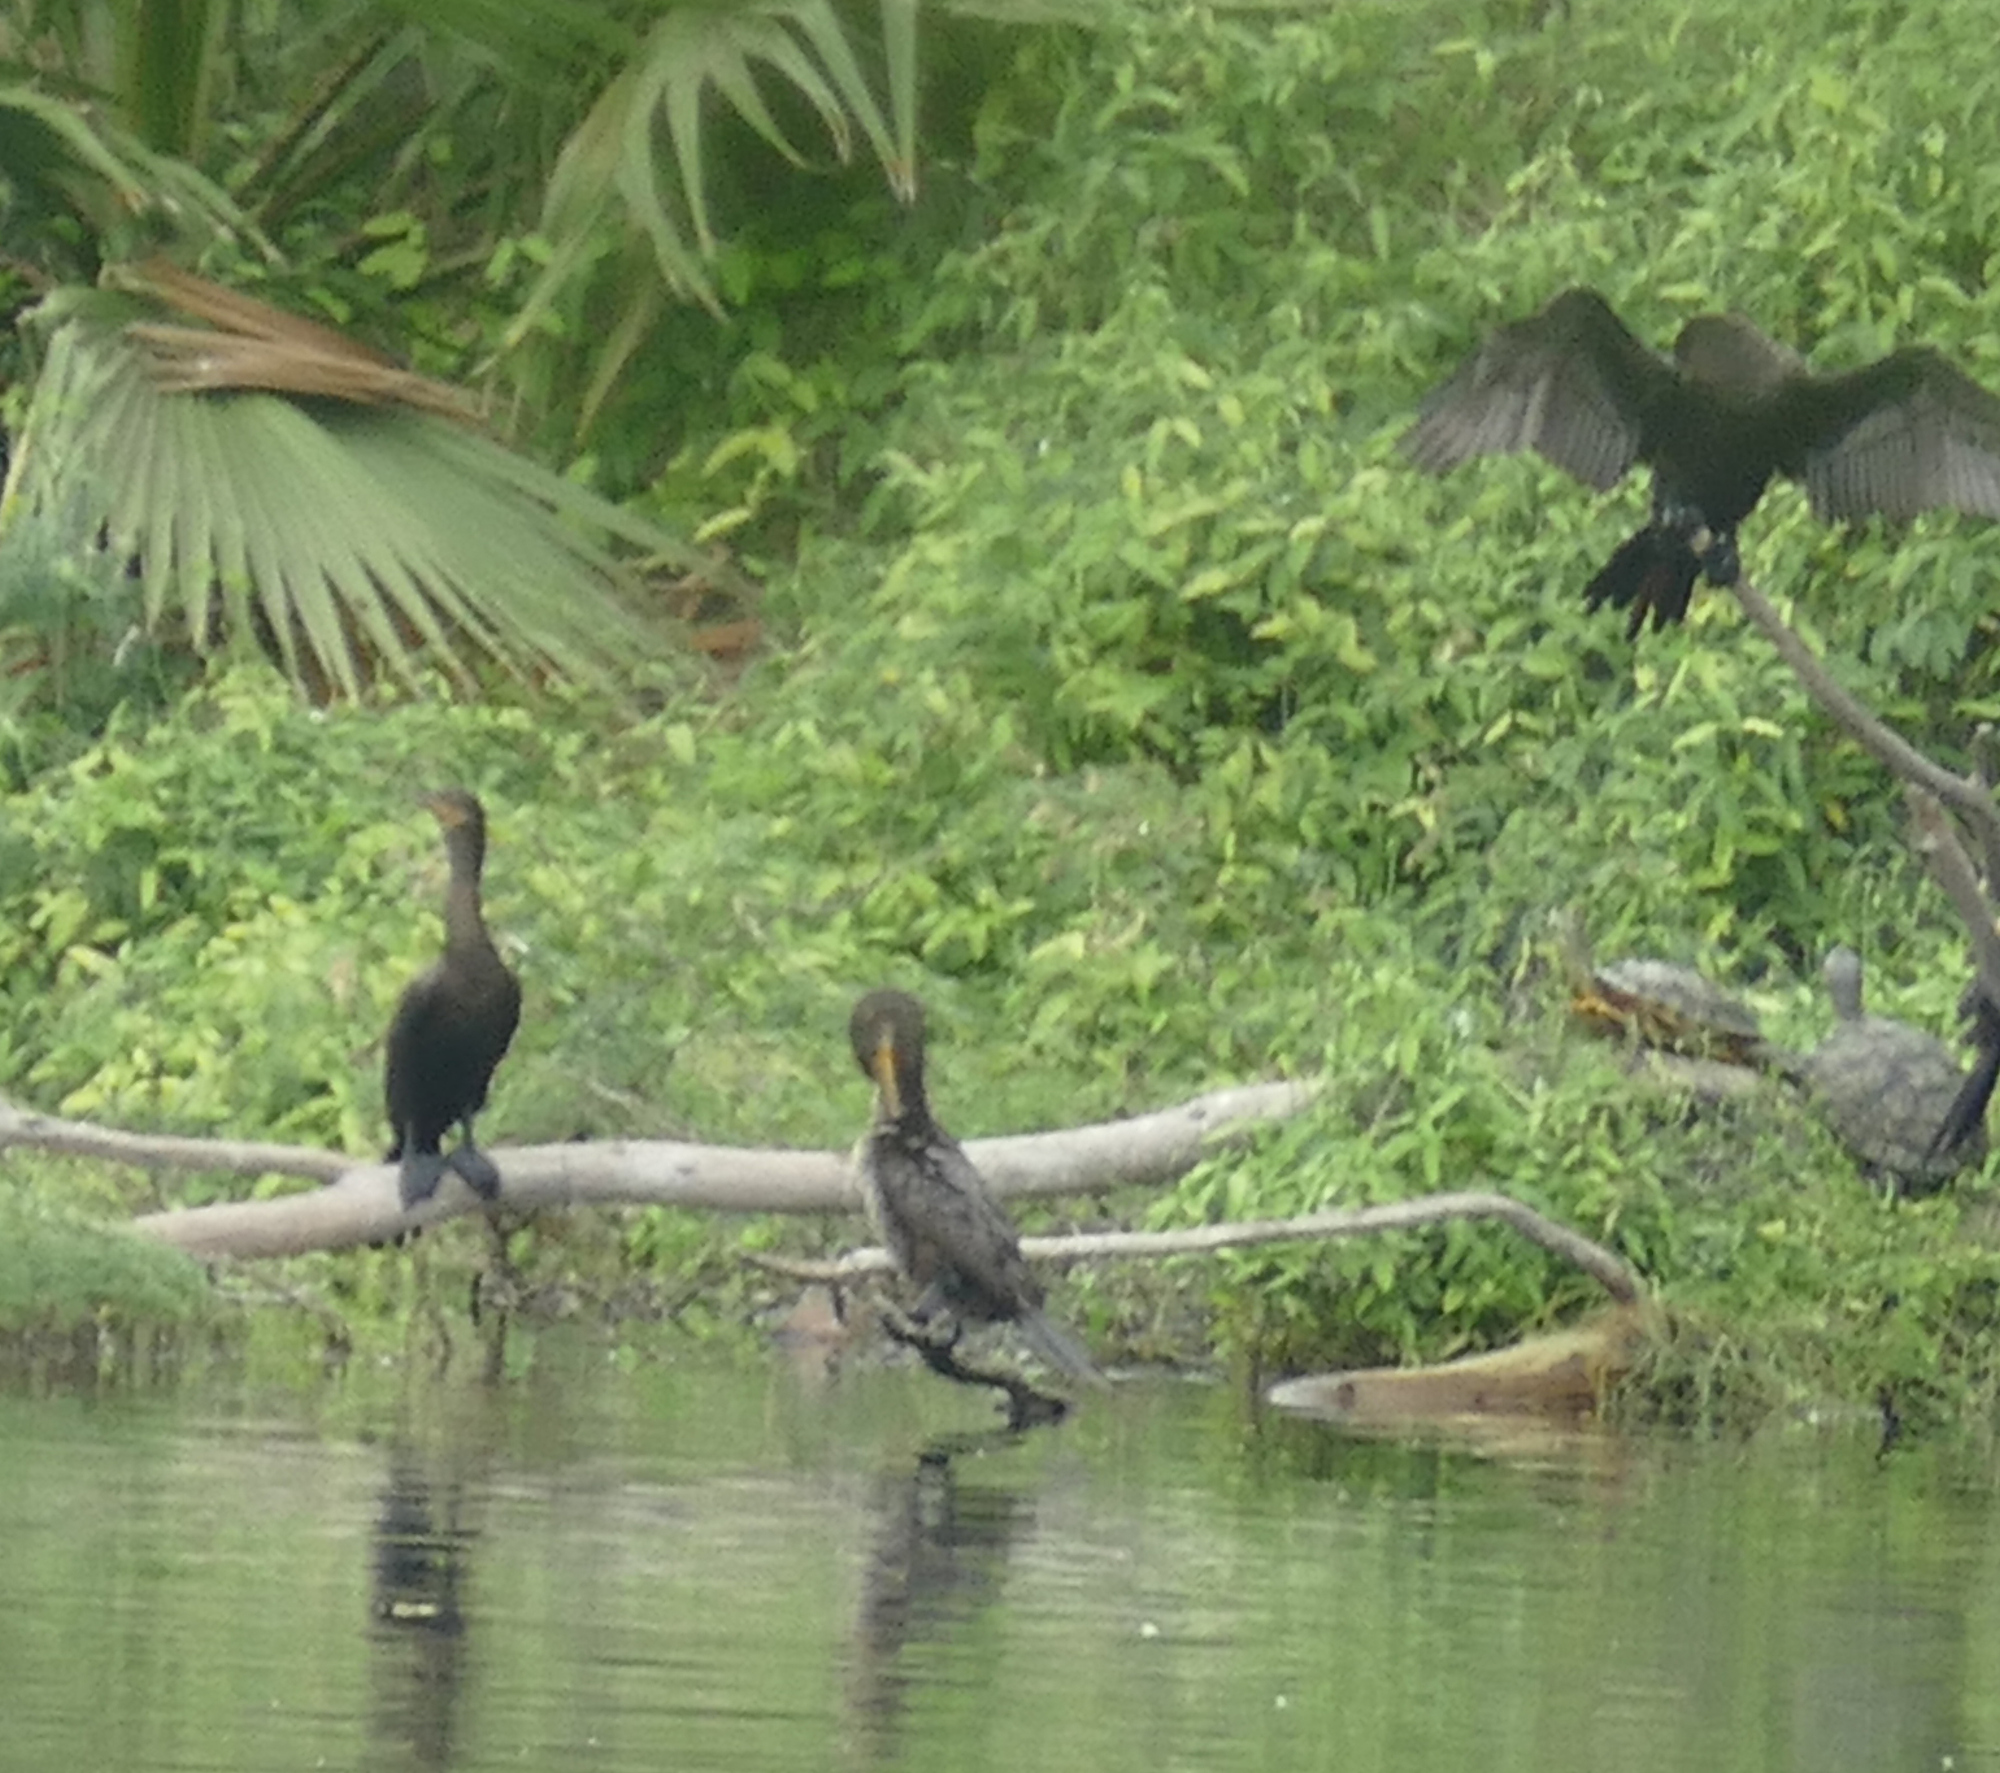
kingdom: Animalia
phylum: Chordata
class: Aves
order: Suliformes
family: Phalacrocoracidae
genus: Phalacrocorax
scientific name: Phalacrocorax brasilianus
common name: Neotropic cormorant
